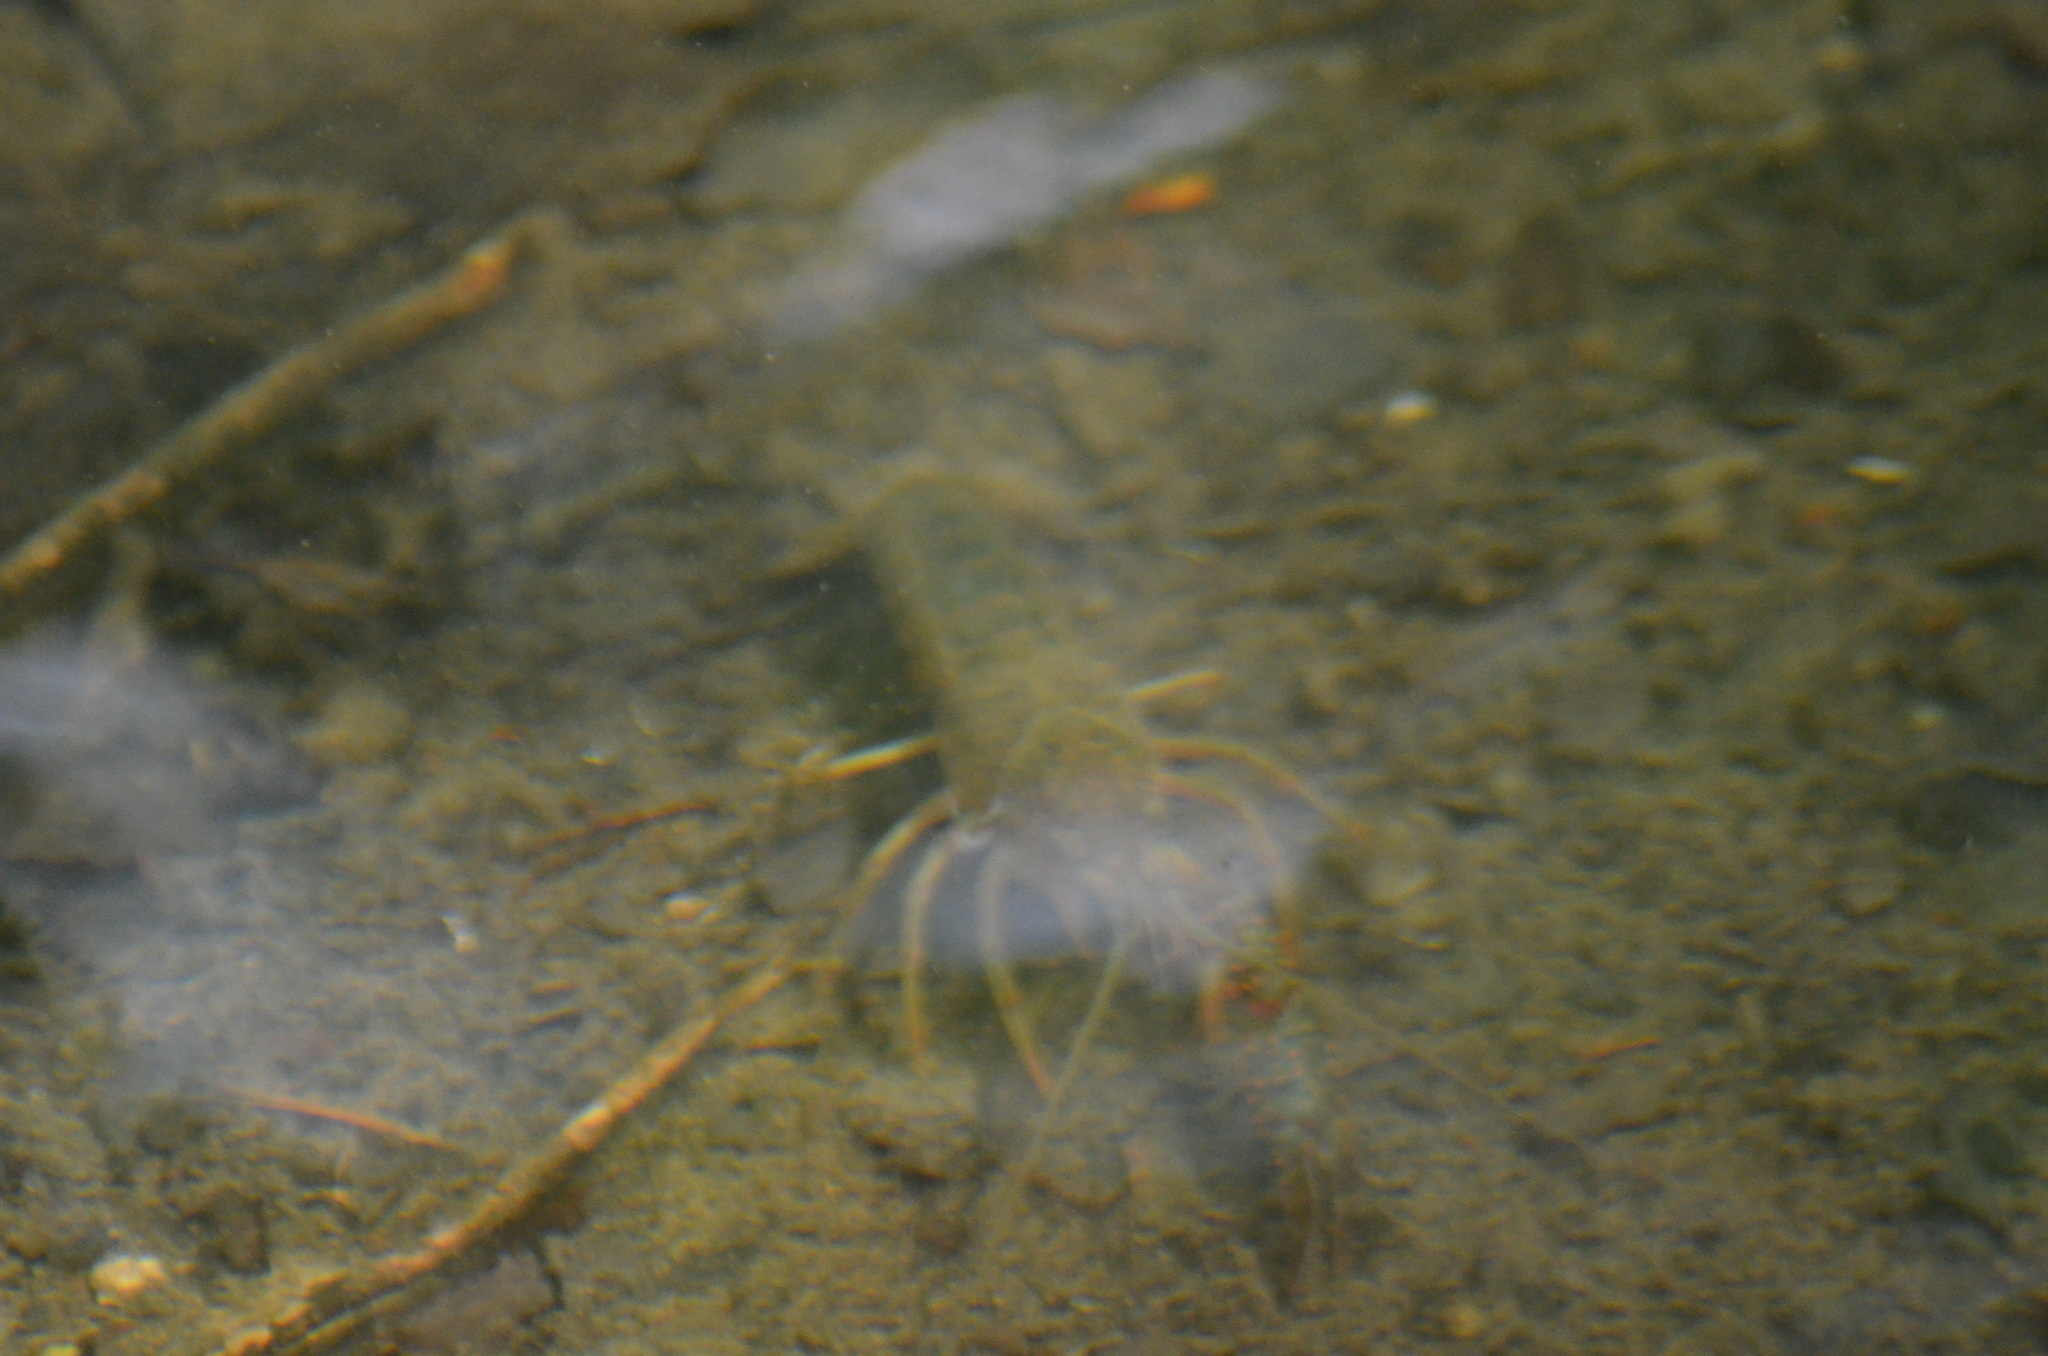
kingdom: Animalia
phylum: Arthropoda
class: Malacostraca
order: Decapoda
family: Cambaridae
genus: Procambarus
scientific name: Procambarus clarkii
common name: Red swamp crayfish
